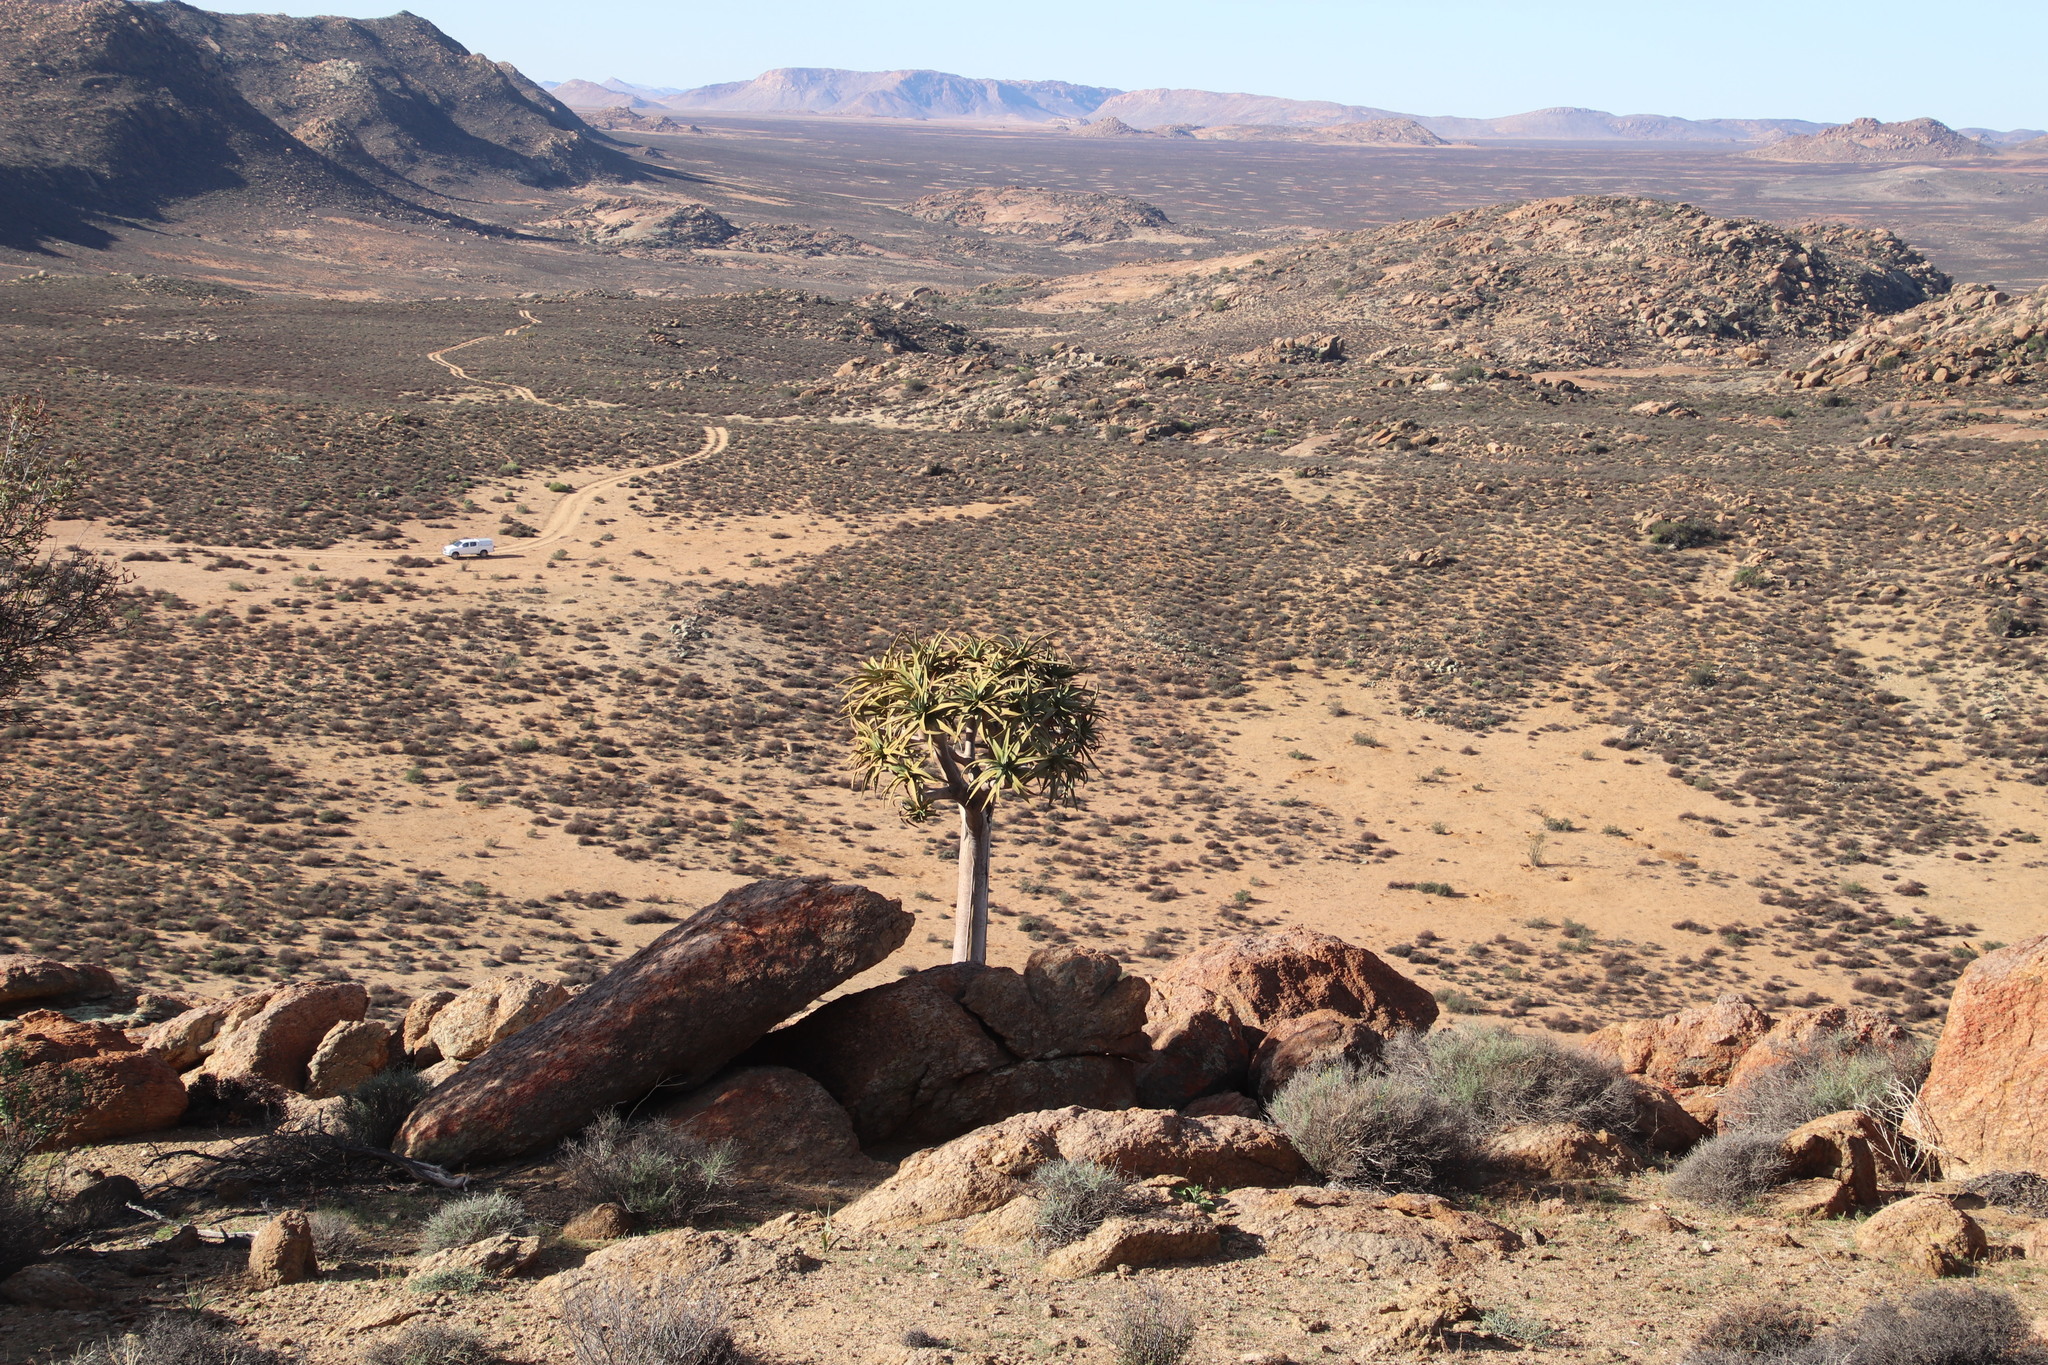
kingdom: Plantae
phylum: Tracheophyta
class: Liliopsida
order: Asparagales
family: Asphodelaceae
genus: Aloidendron
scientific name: Aloidendron dichotomum
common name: Quiver tree
